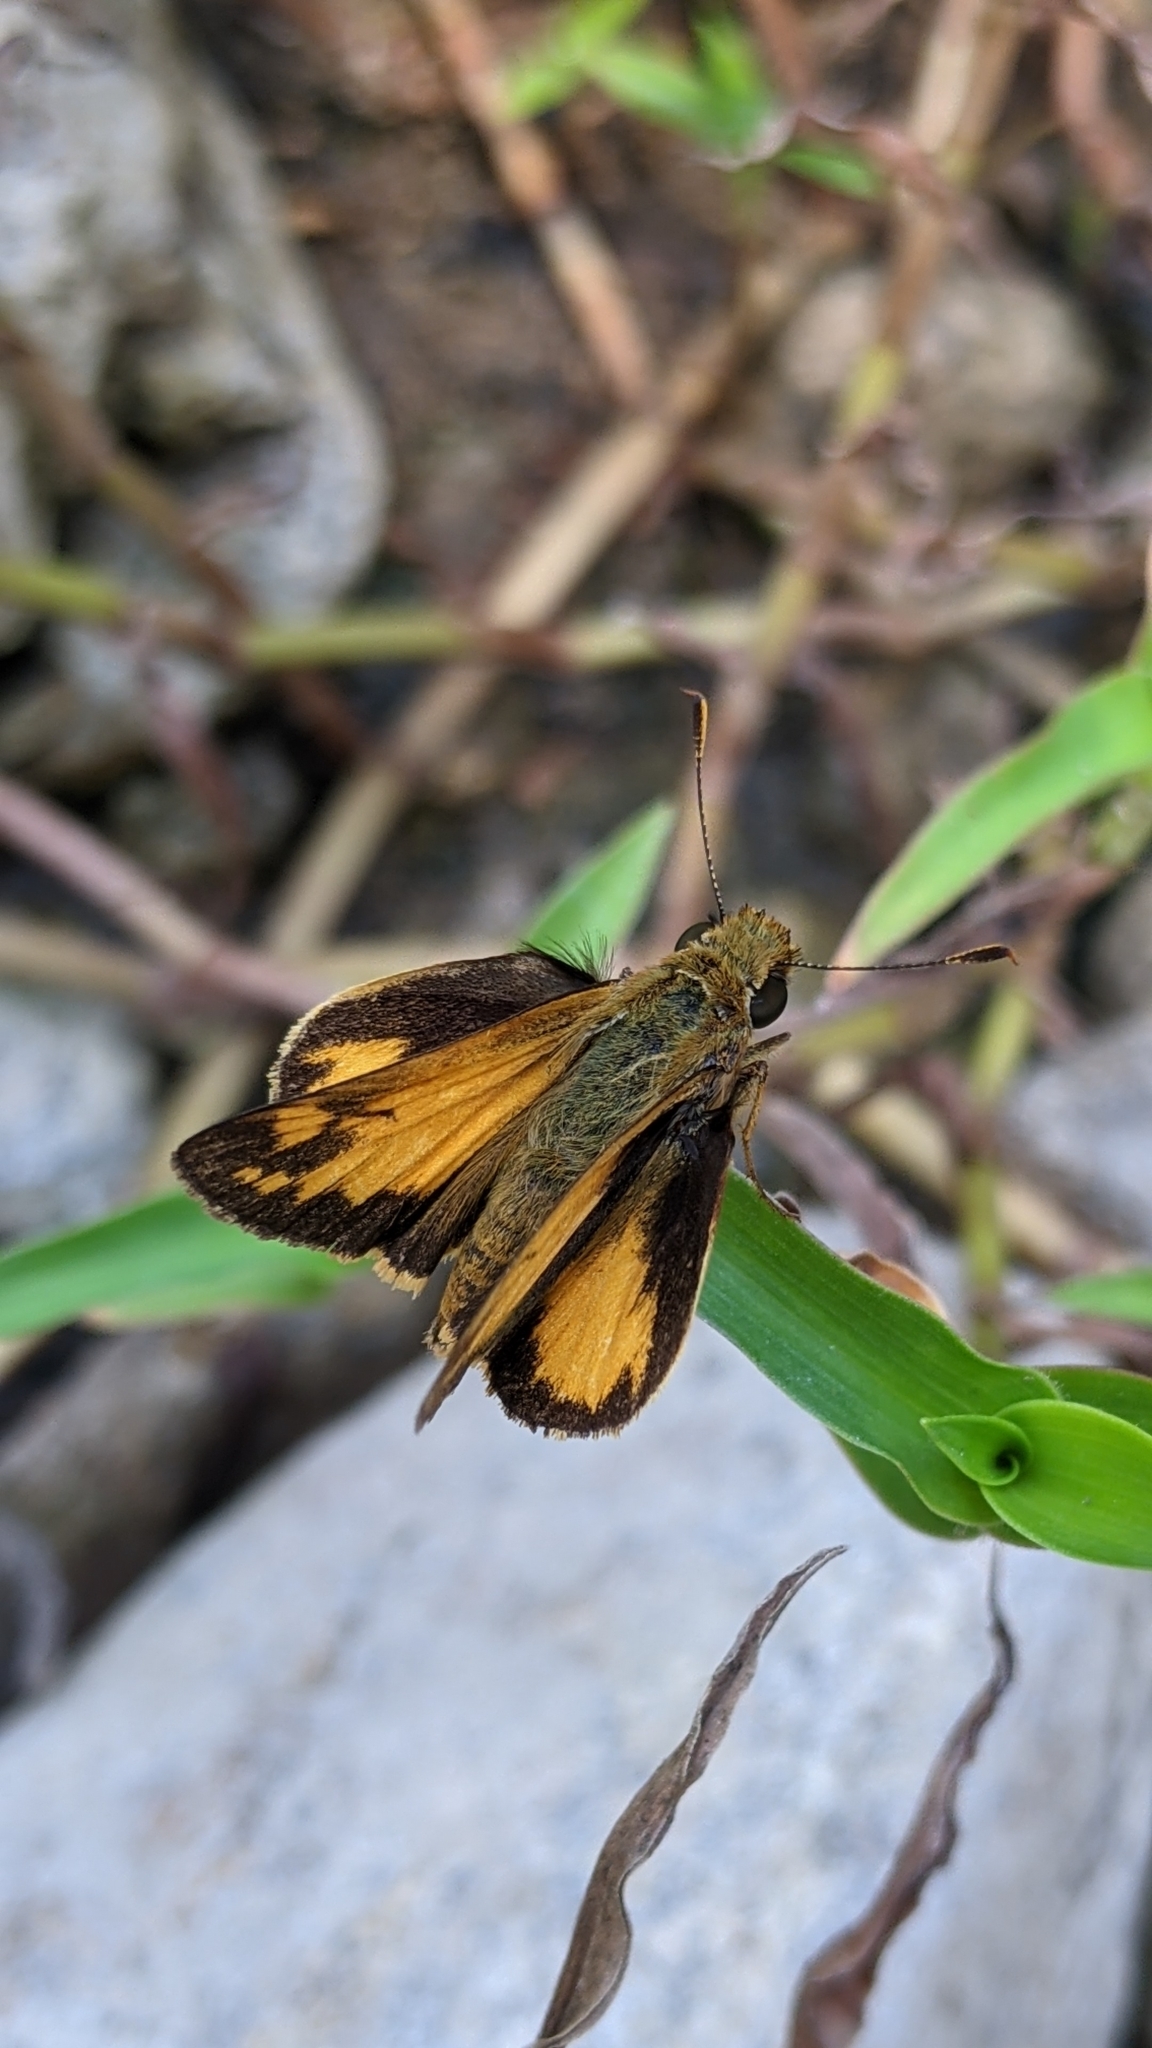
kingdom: Animalia
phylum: Arthropoda
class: Insecta
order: Lepidoptera
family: Hesperiidae
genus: Lon
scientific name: Lon zabulon
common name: Zabulon skipper
